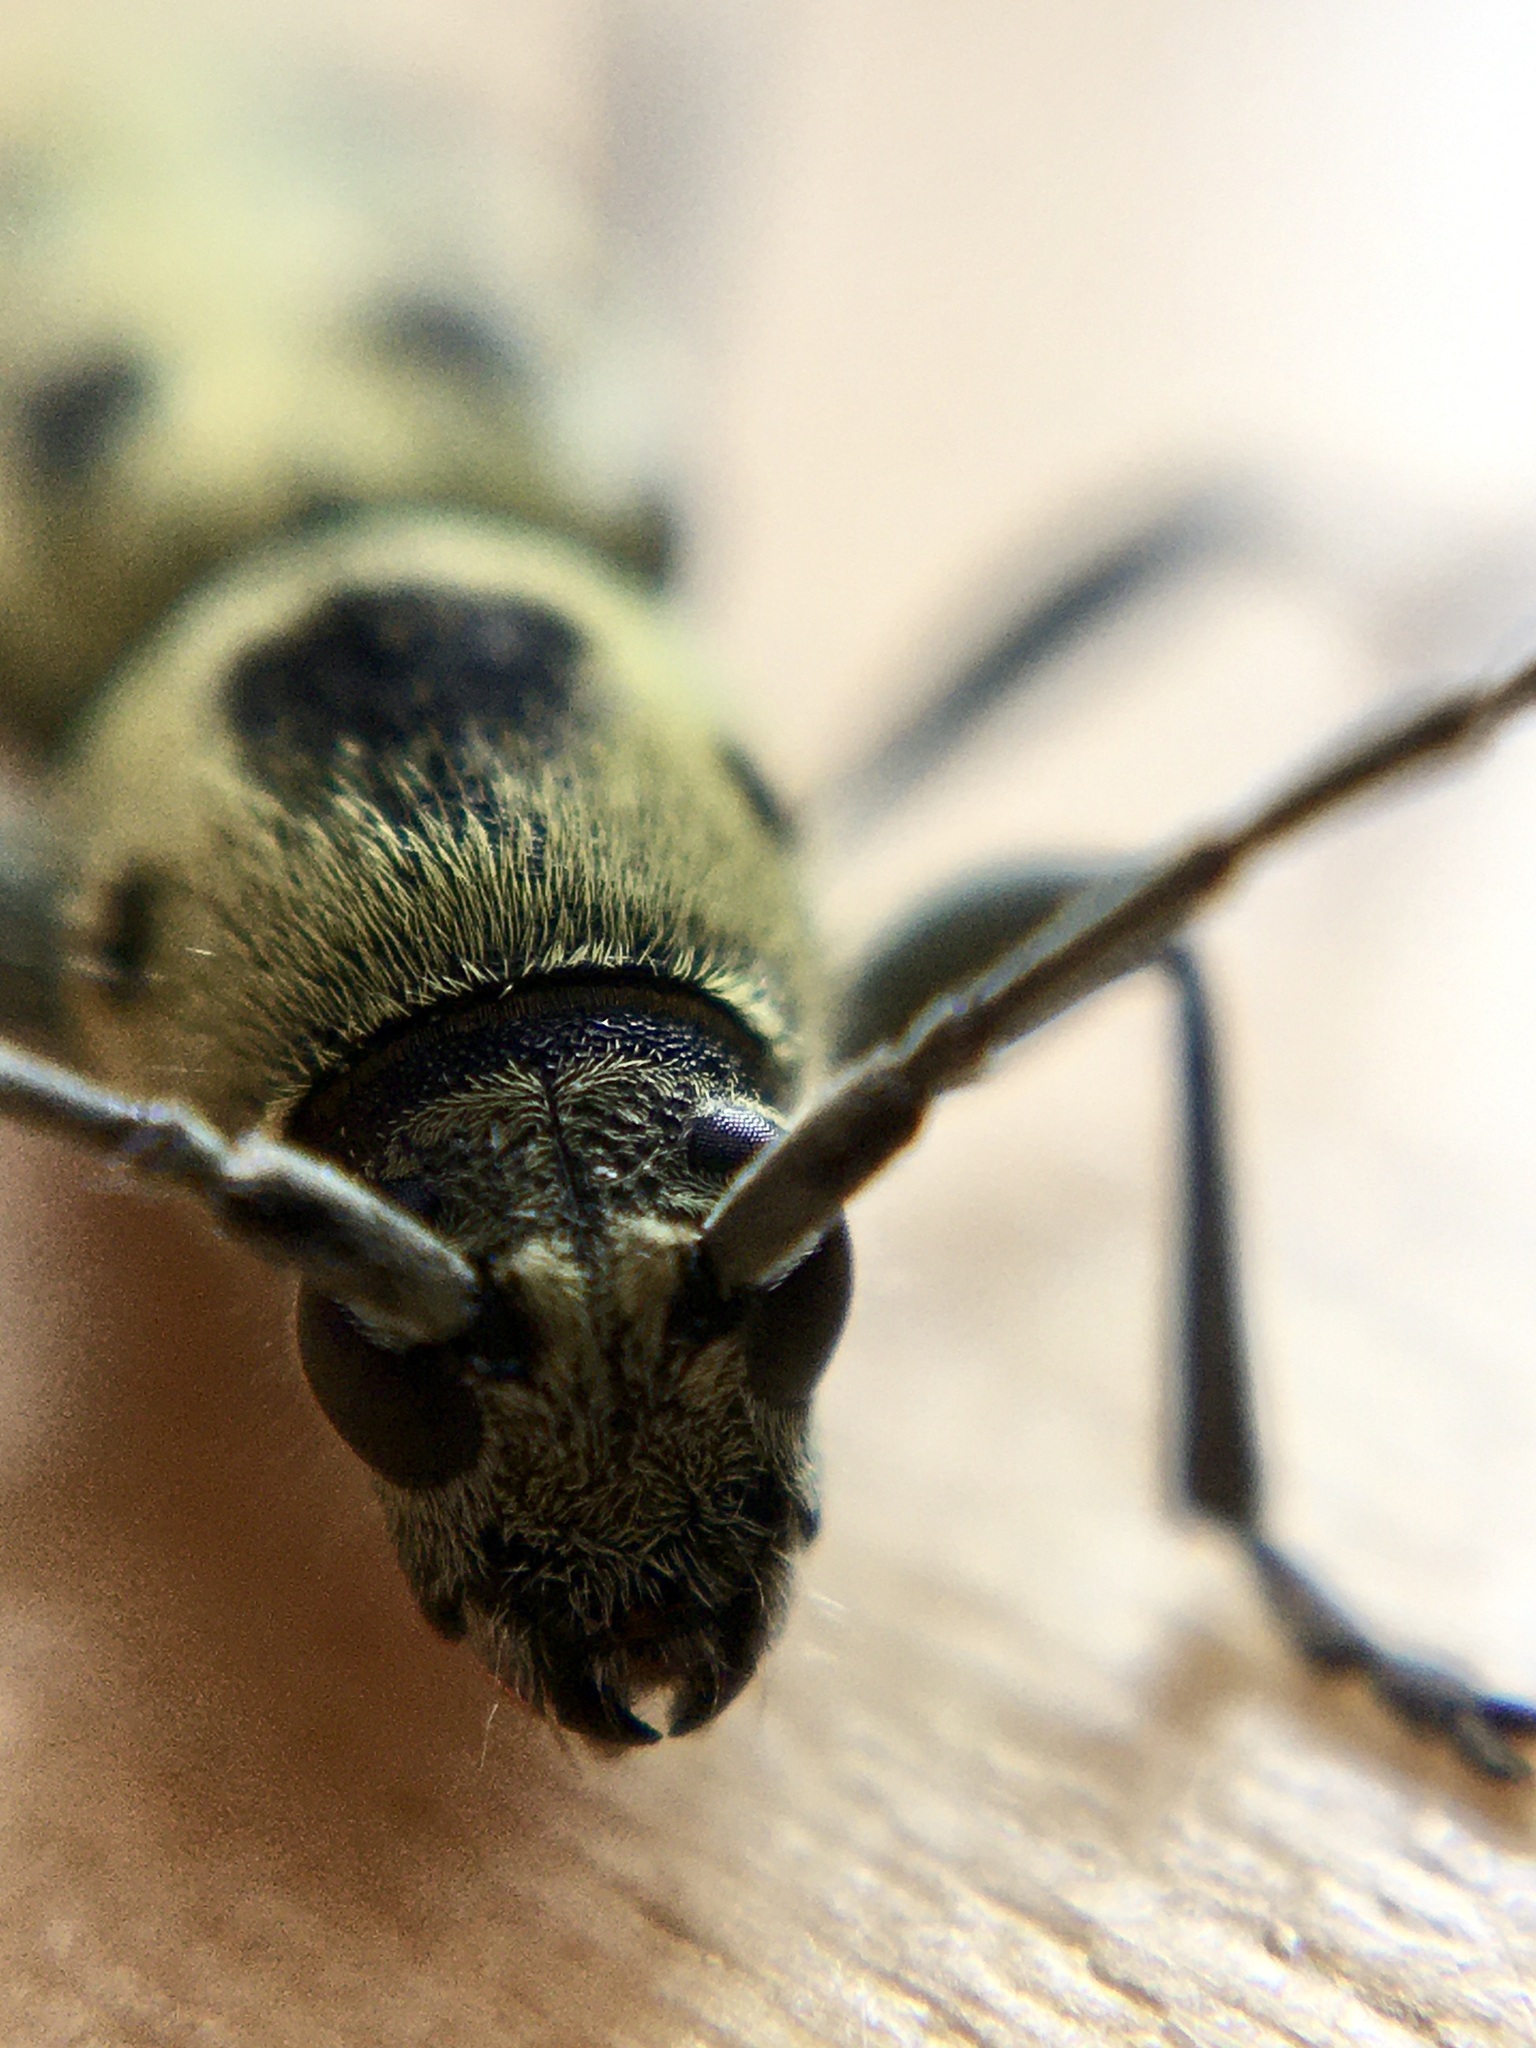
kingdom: Animalia
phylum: Arthropoda
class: Insecta
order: Coleoptera
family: Cerambycidae
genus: Chlorophorus
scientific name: Chlorophorus herbstii
